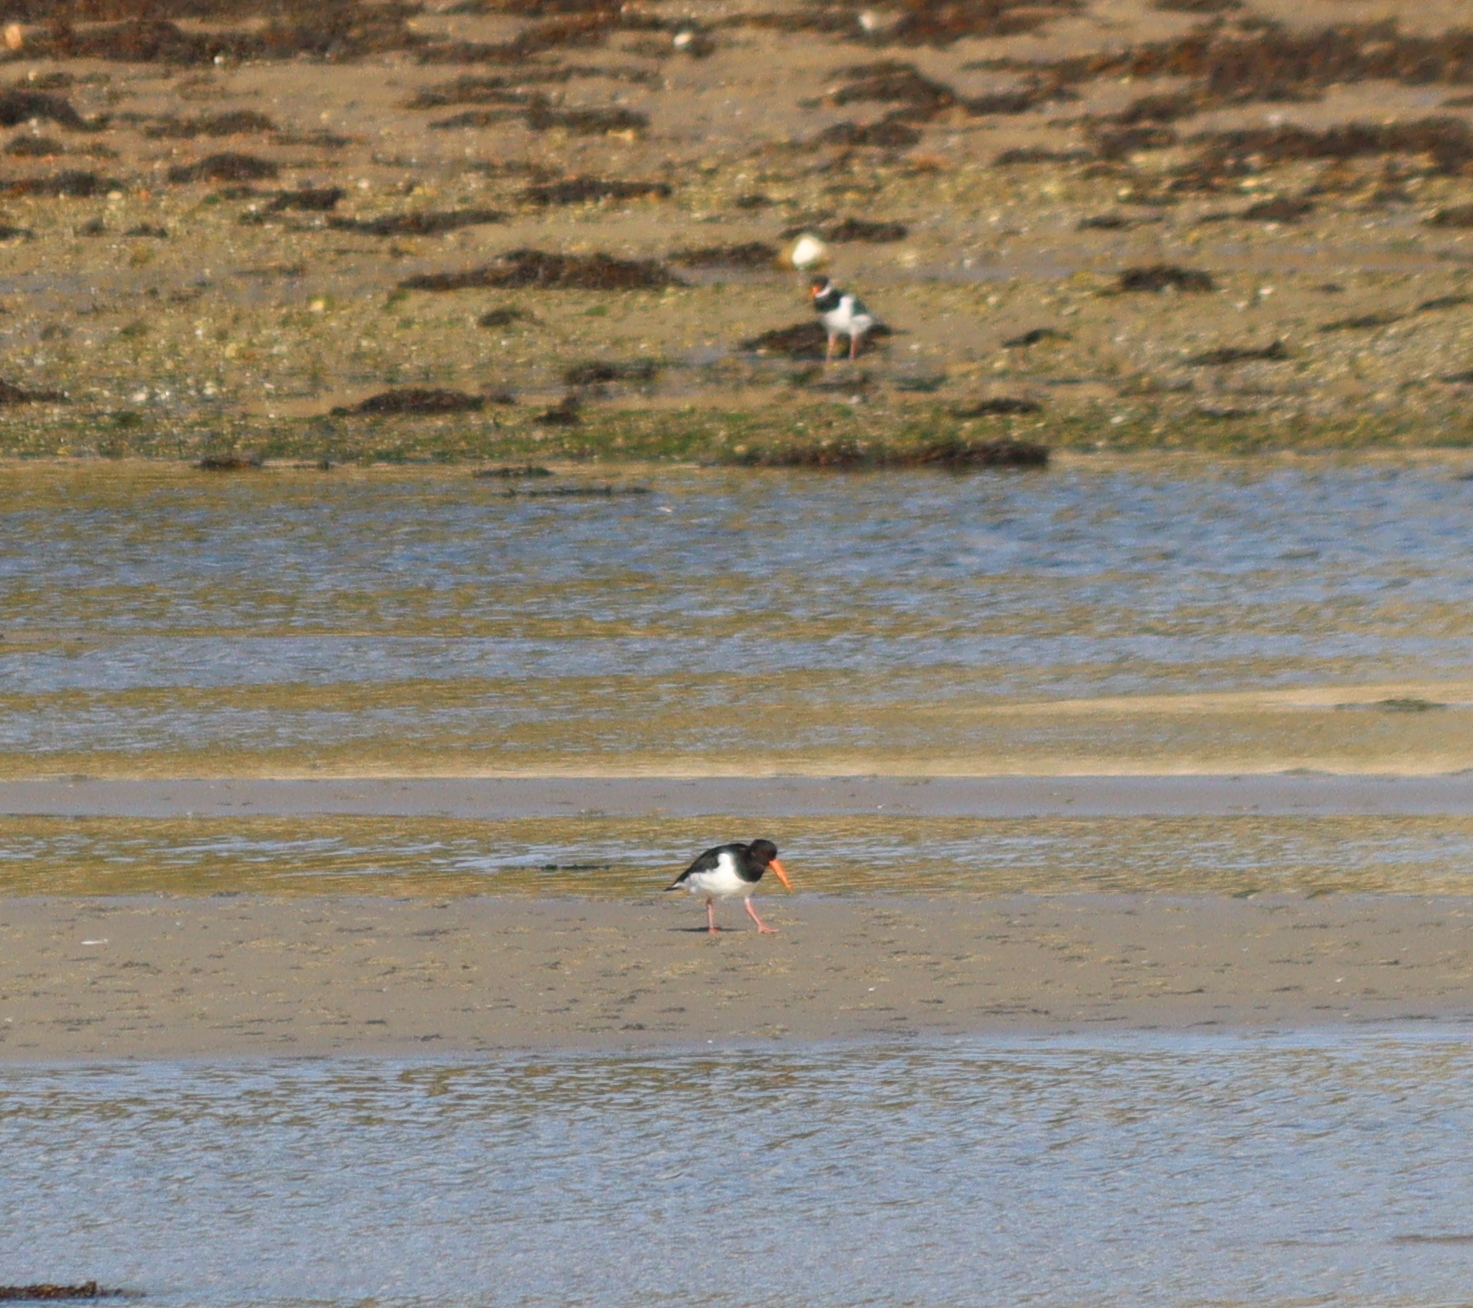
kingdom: Animalia
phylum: Chordata
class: Aves
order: Charadriiformes
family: Haematopodidae
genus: Haematopus
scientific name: Haematopus ostralegus
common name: Eurasian oystercatcher
